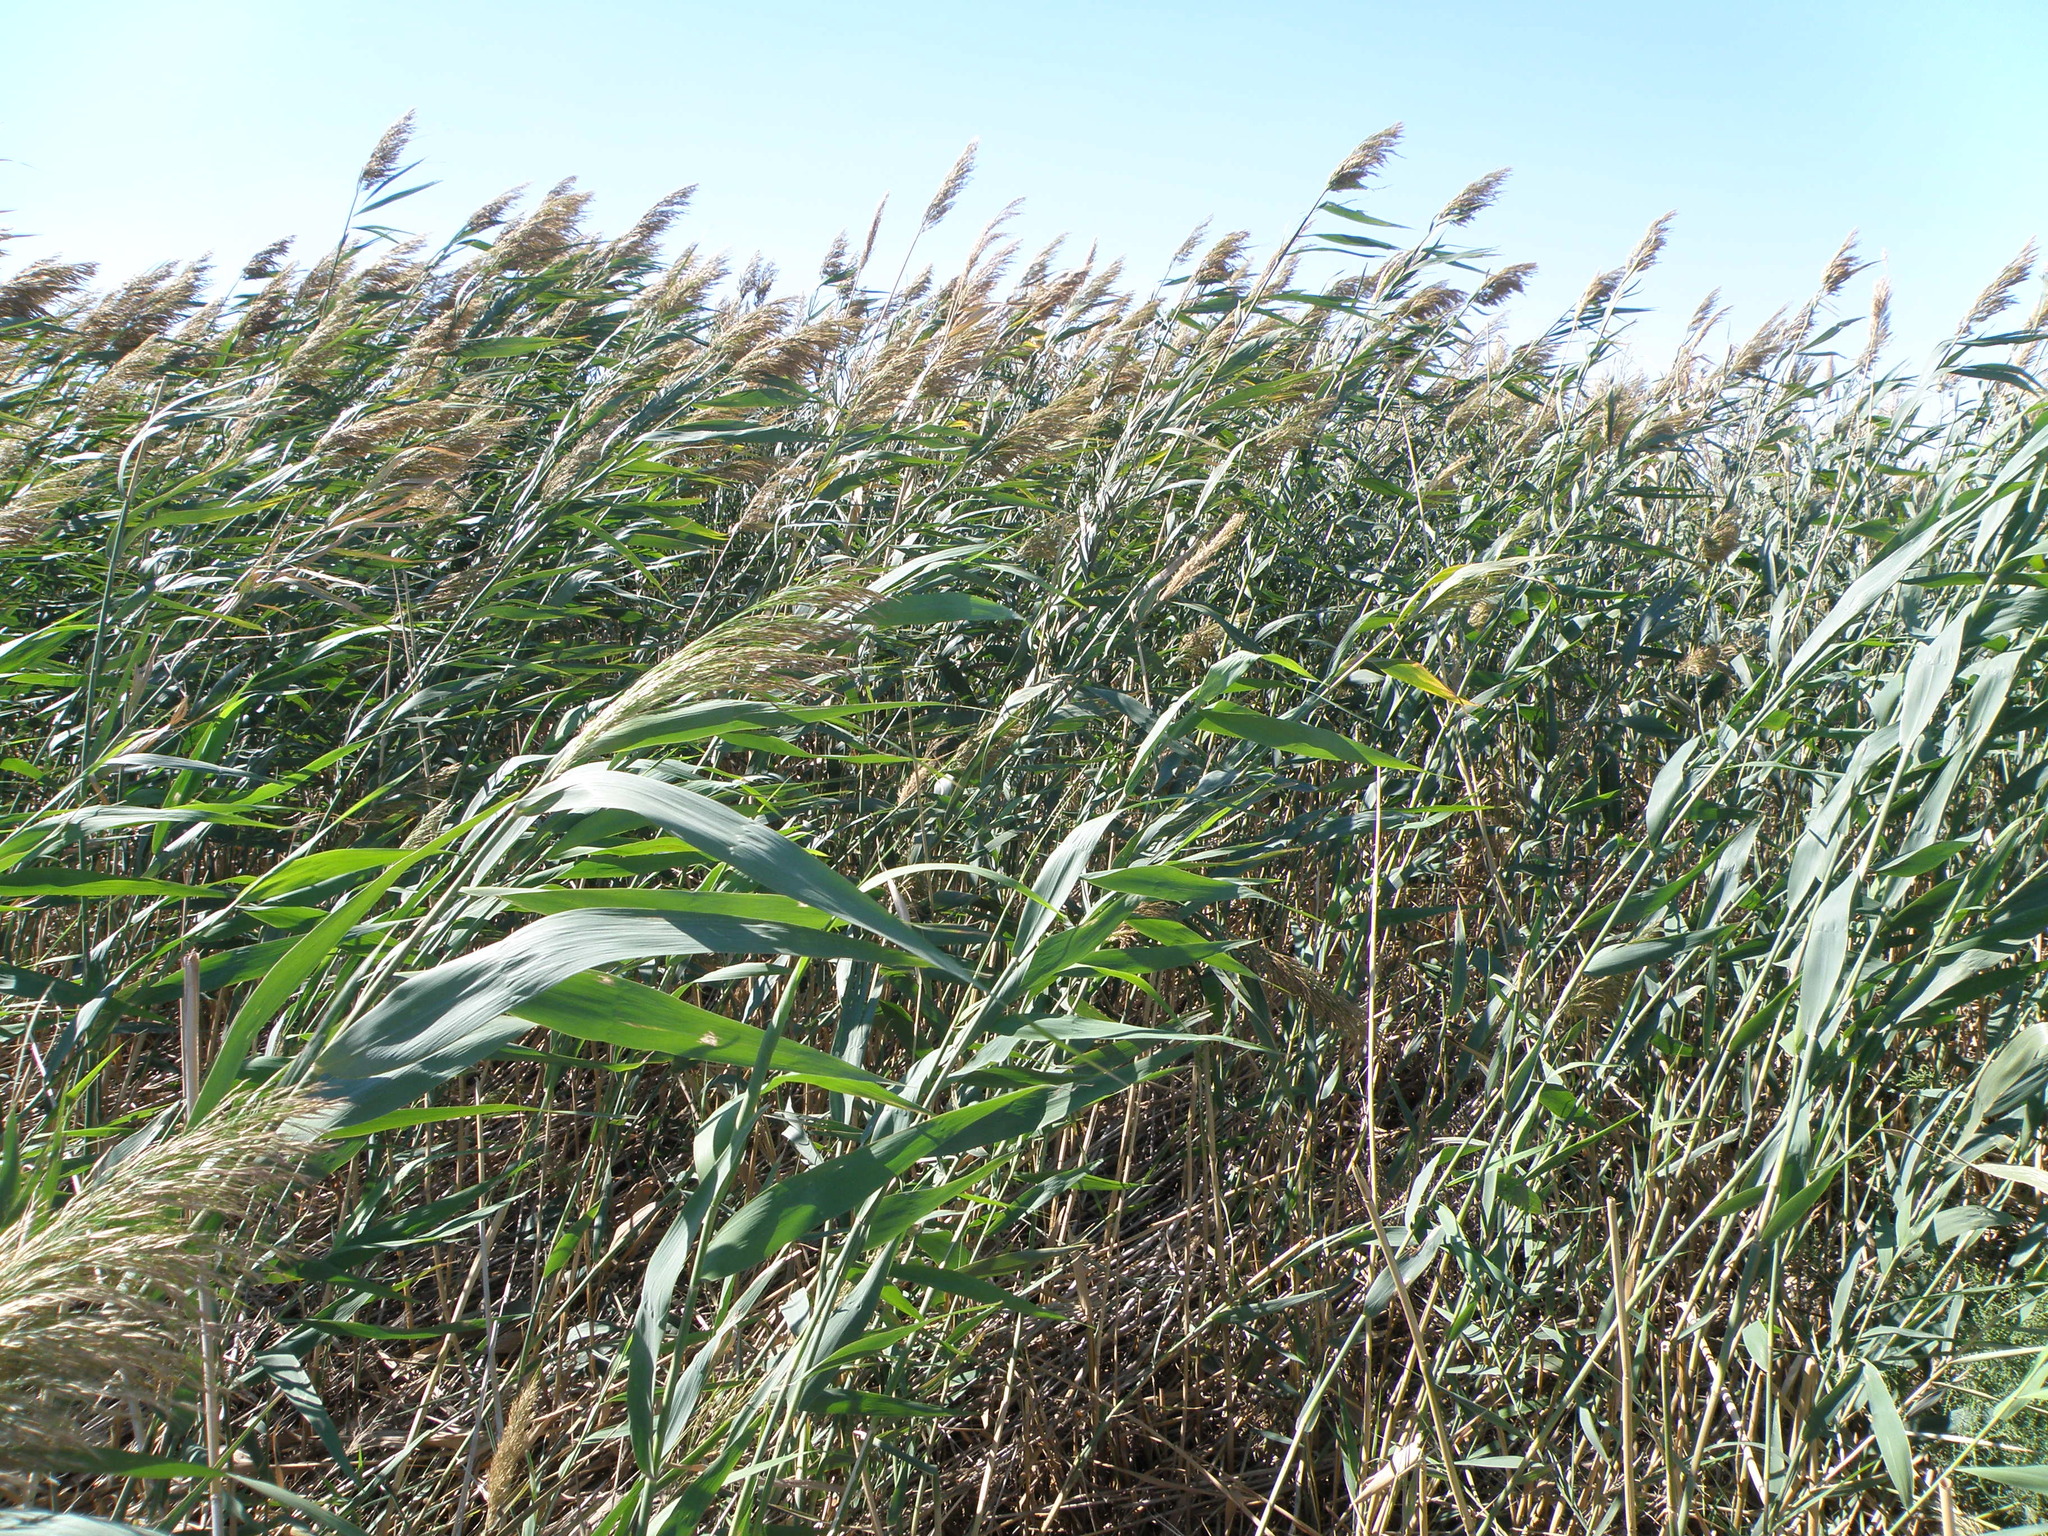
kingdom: Plantae
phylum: Tracheophyta
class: Liliopsida
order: Poales
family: Poaceae
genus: Phragmites
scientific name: Phragmites australis
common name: Common reed
